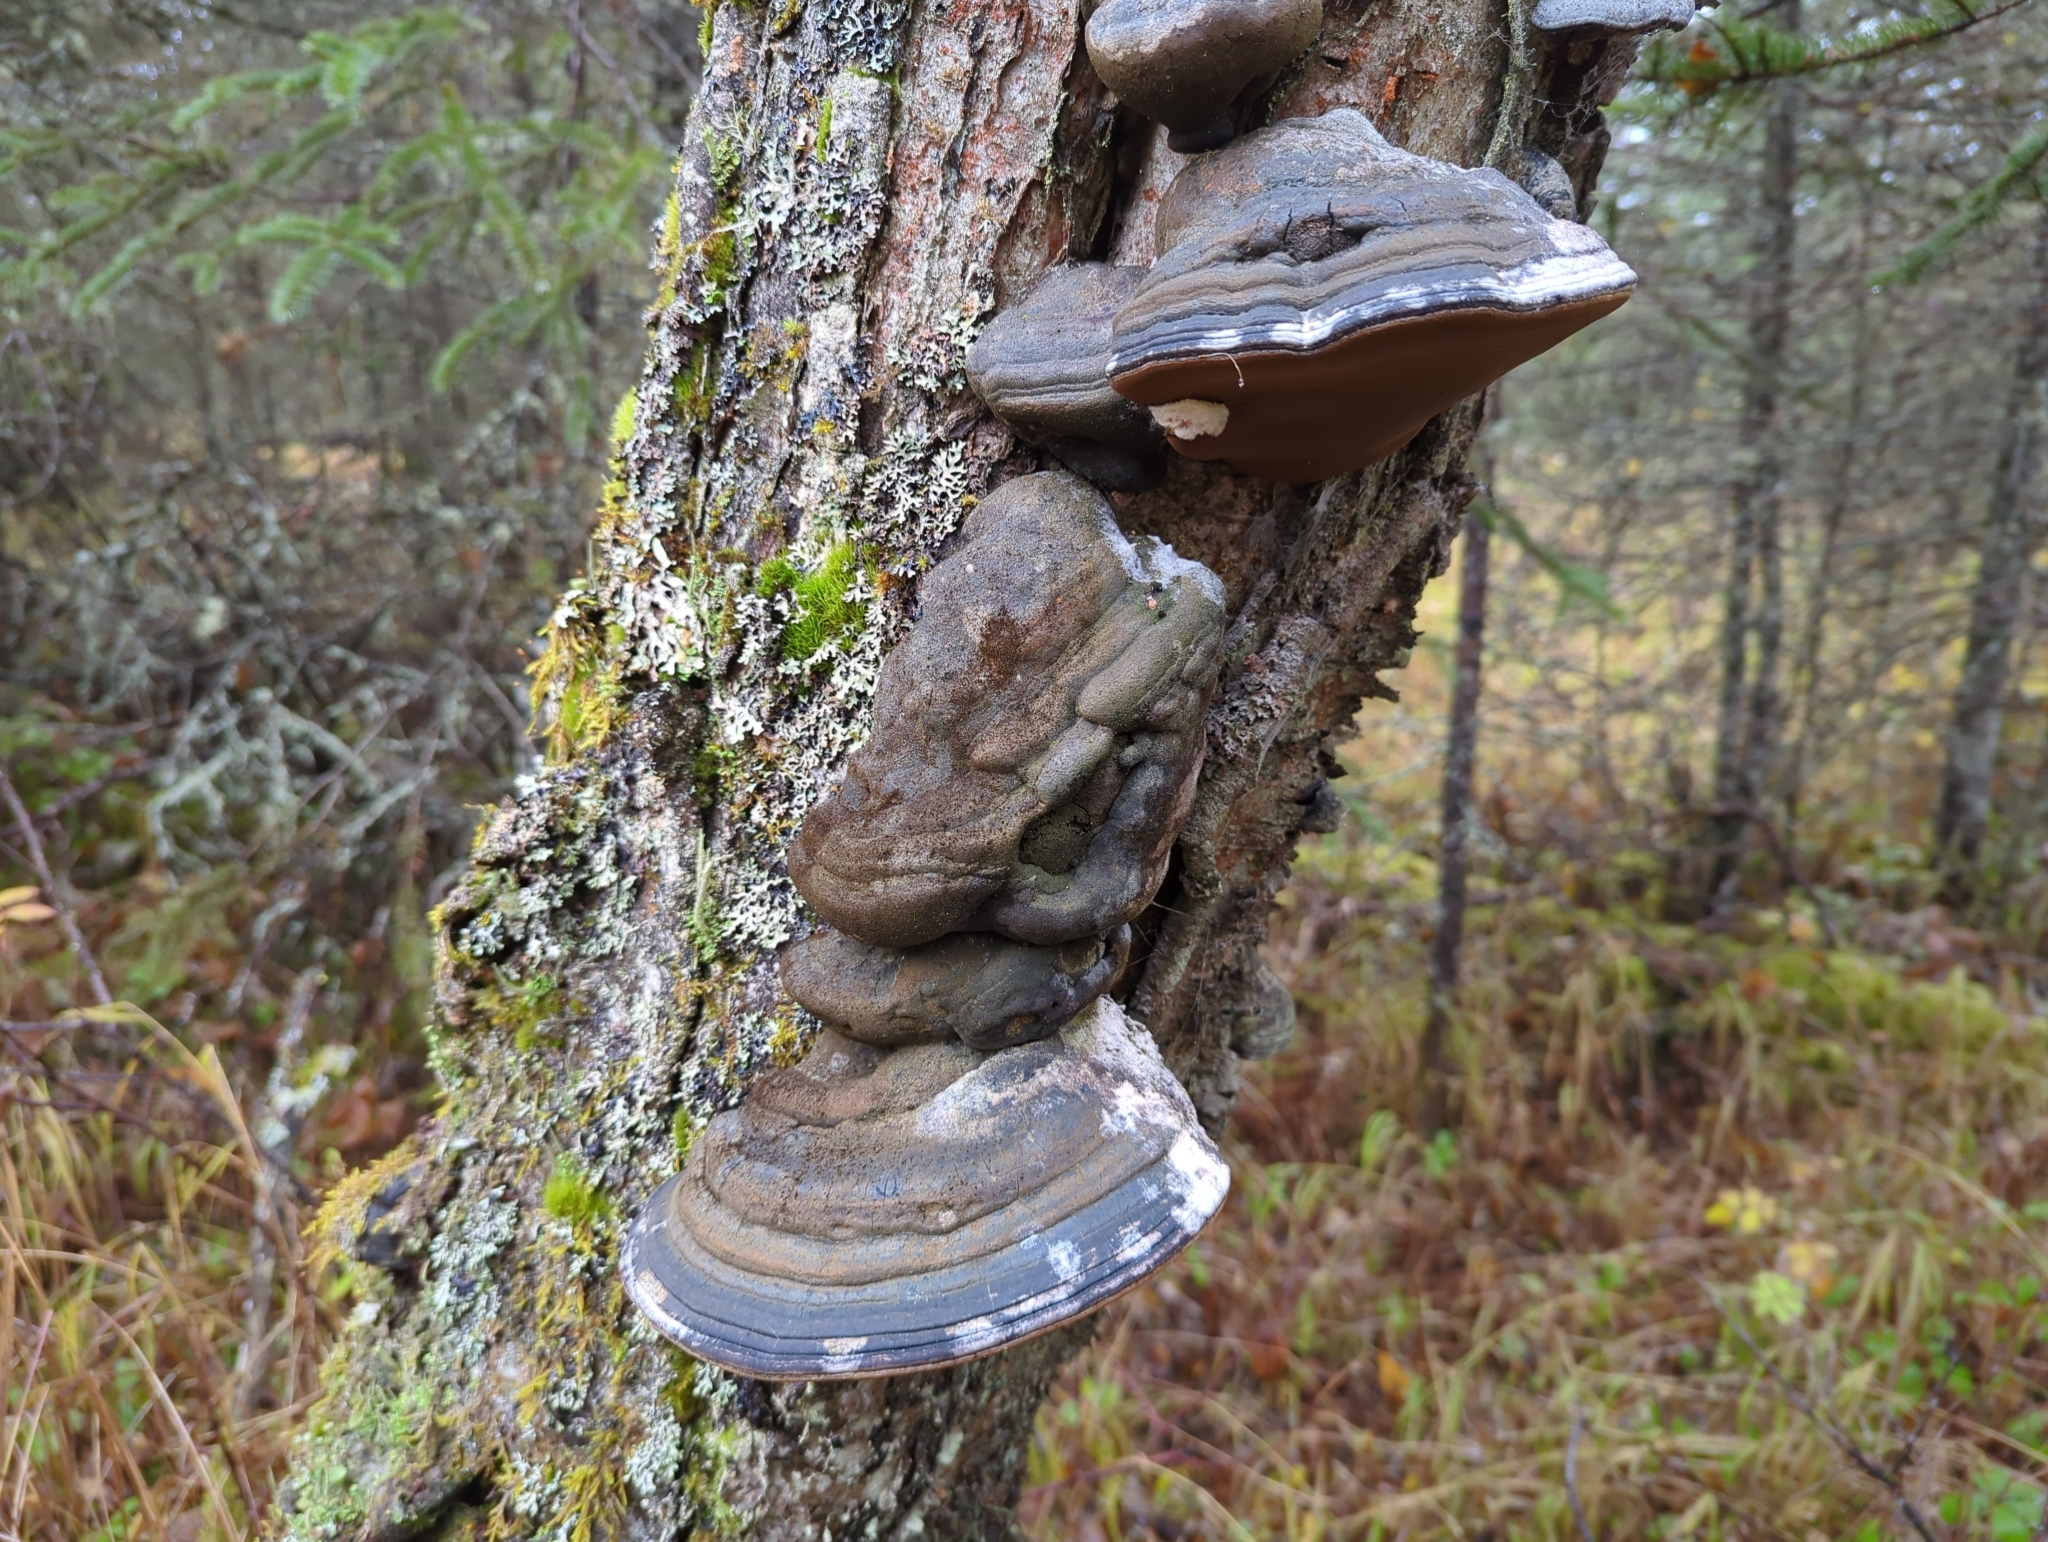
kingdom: Fungi
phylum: Basidiomycota
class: Agaricomycetes
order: Hymenochaetales
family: Hymenochaetaceae
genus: Phellinus
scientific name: Phellinus igniarius
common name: Willow bracket
